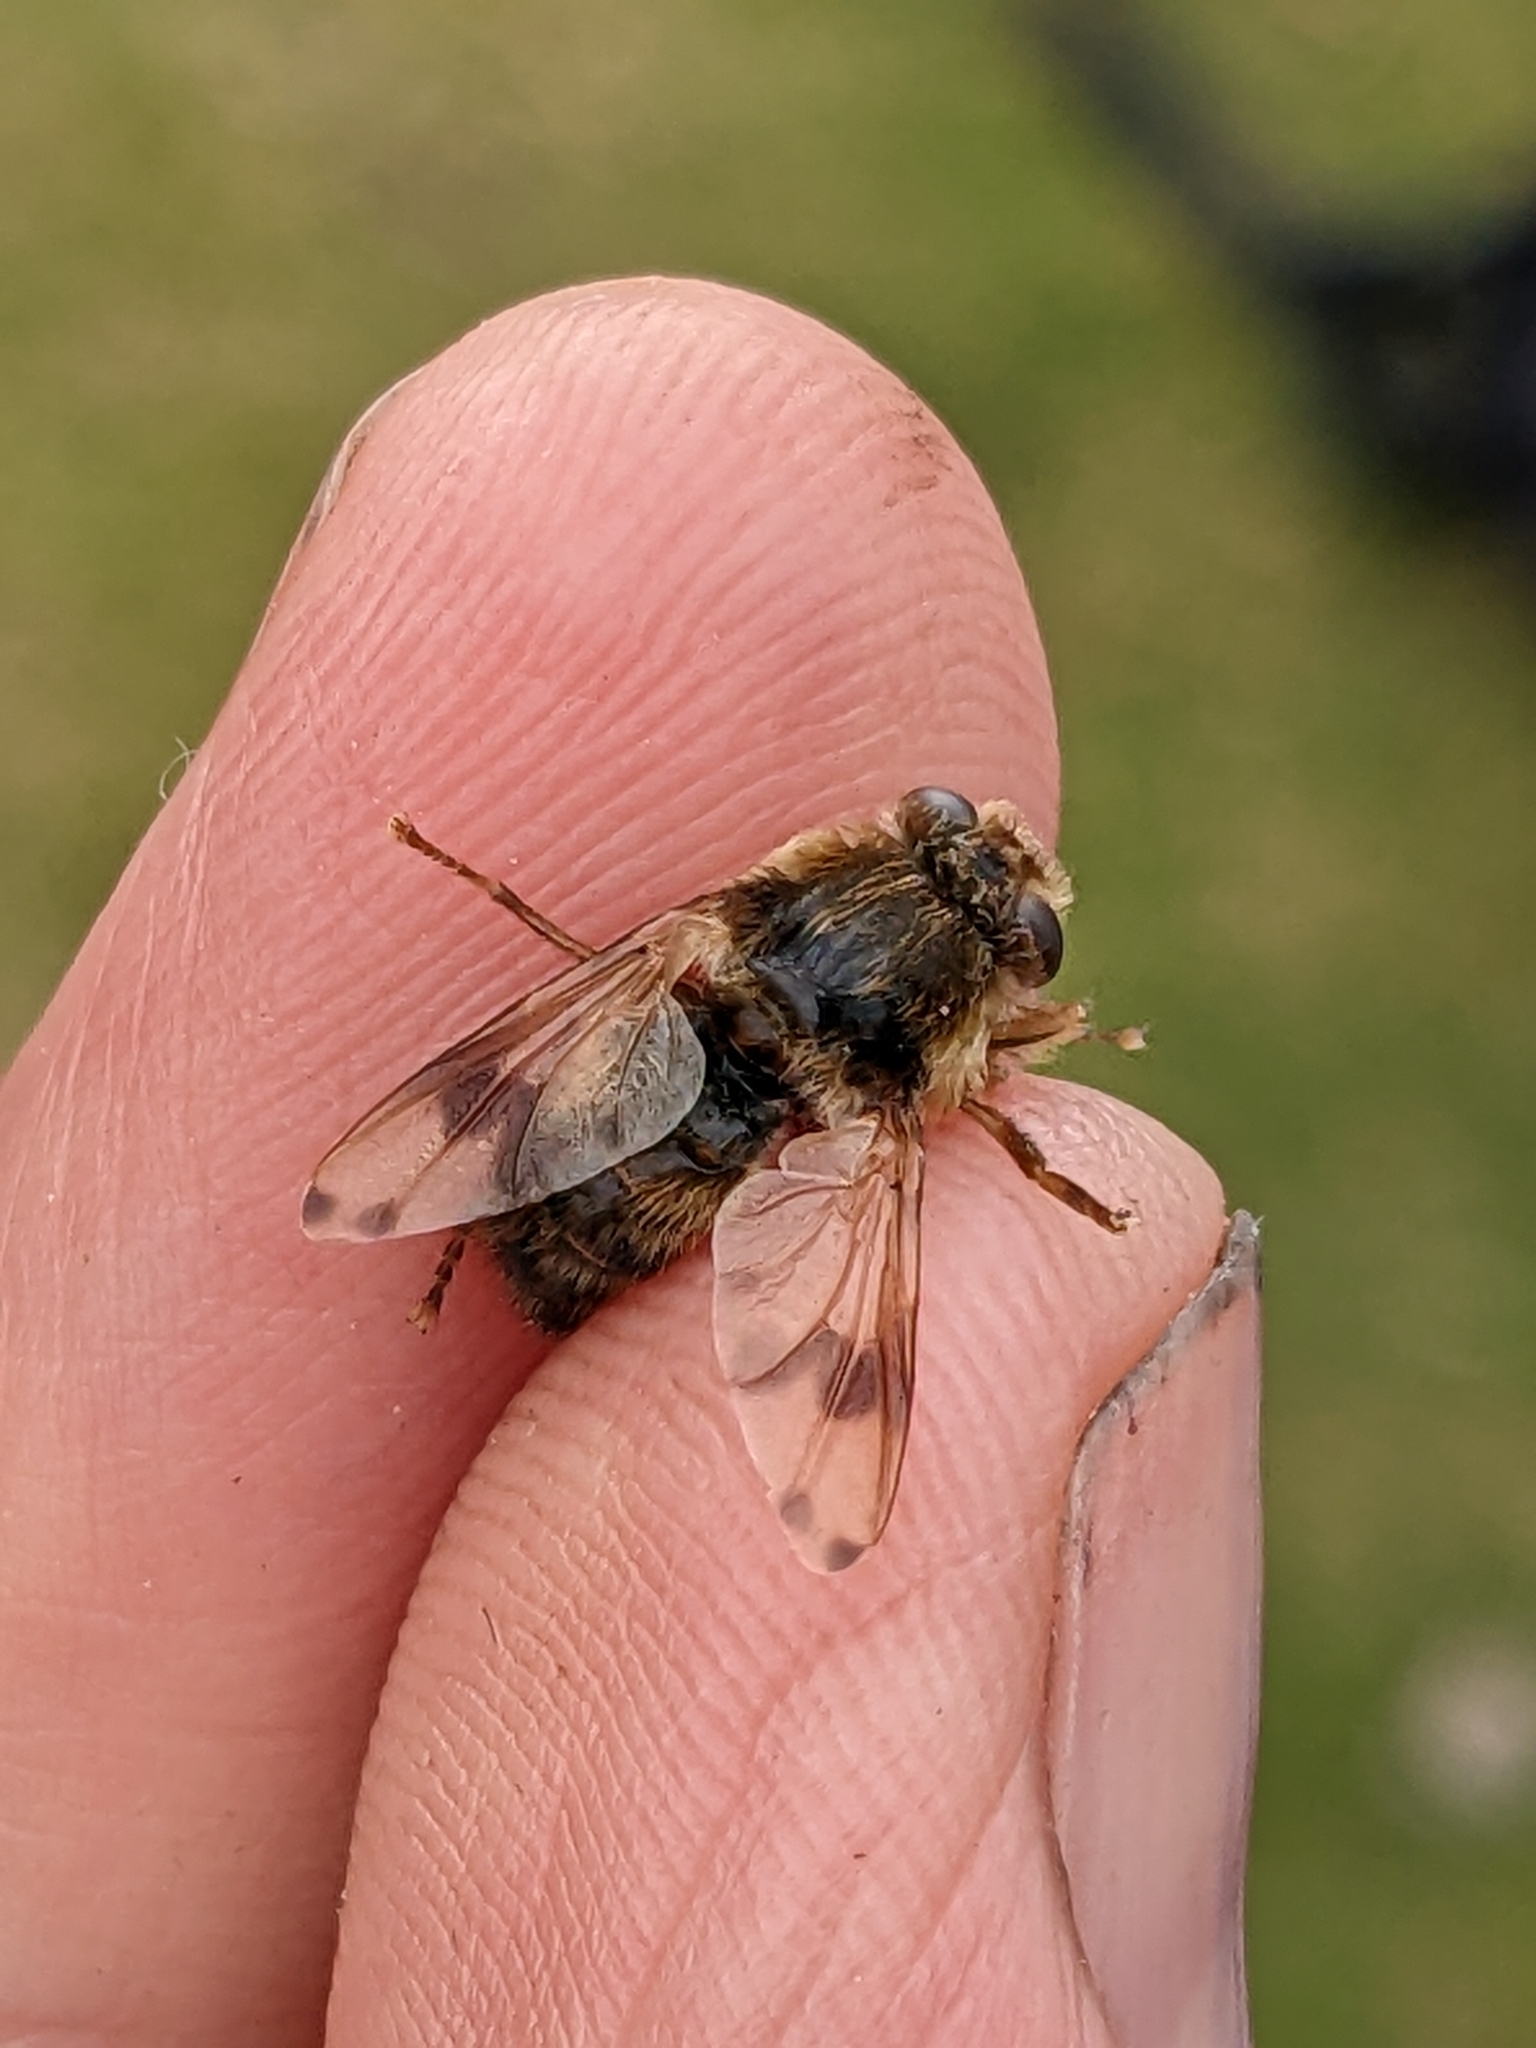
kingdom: Animalia
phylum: Arthropoda
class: Insecta
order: Diptera
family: Oestridae
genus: Gasterophilus
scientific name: Gasterophilus intestinalis
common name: Horse botfly
